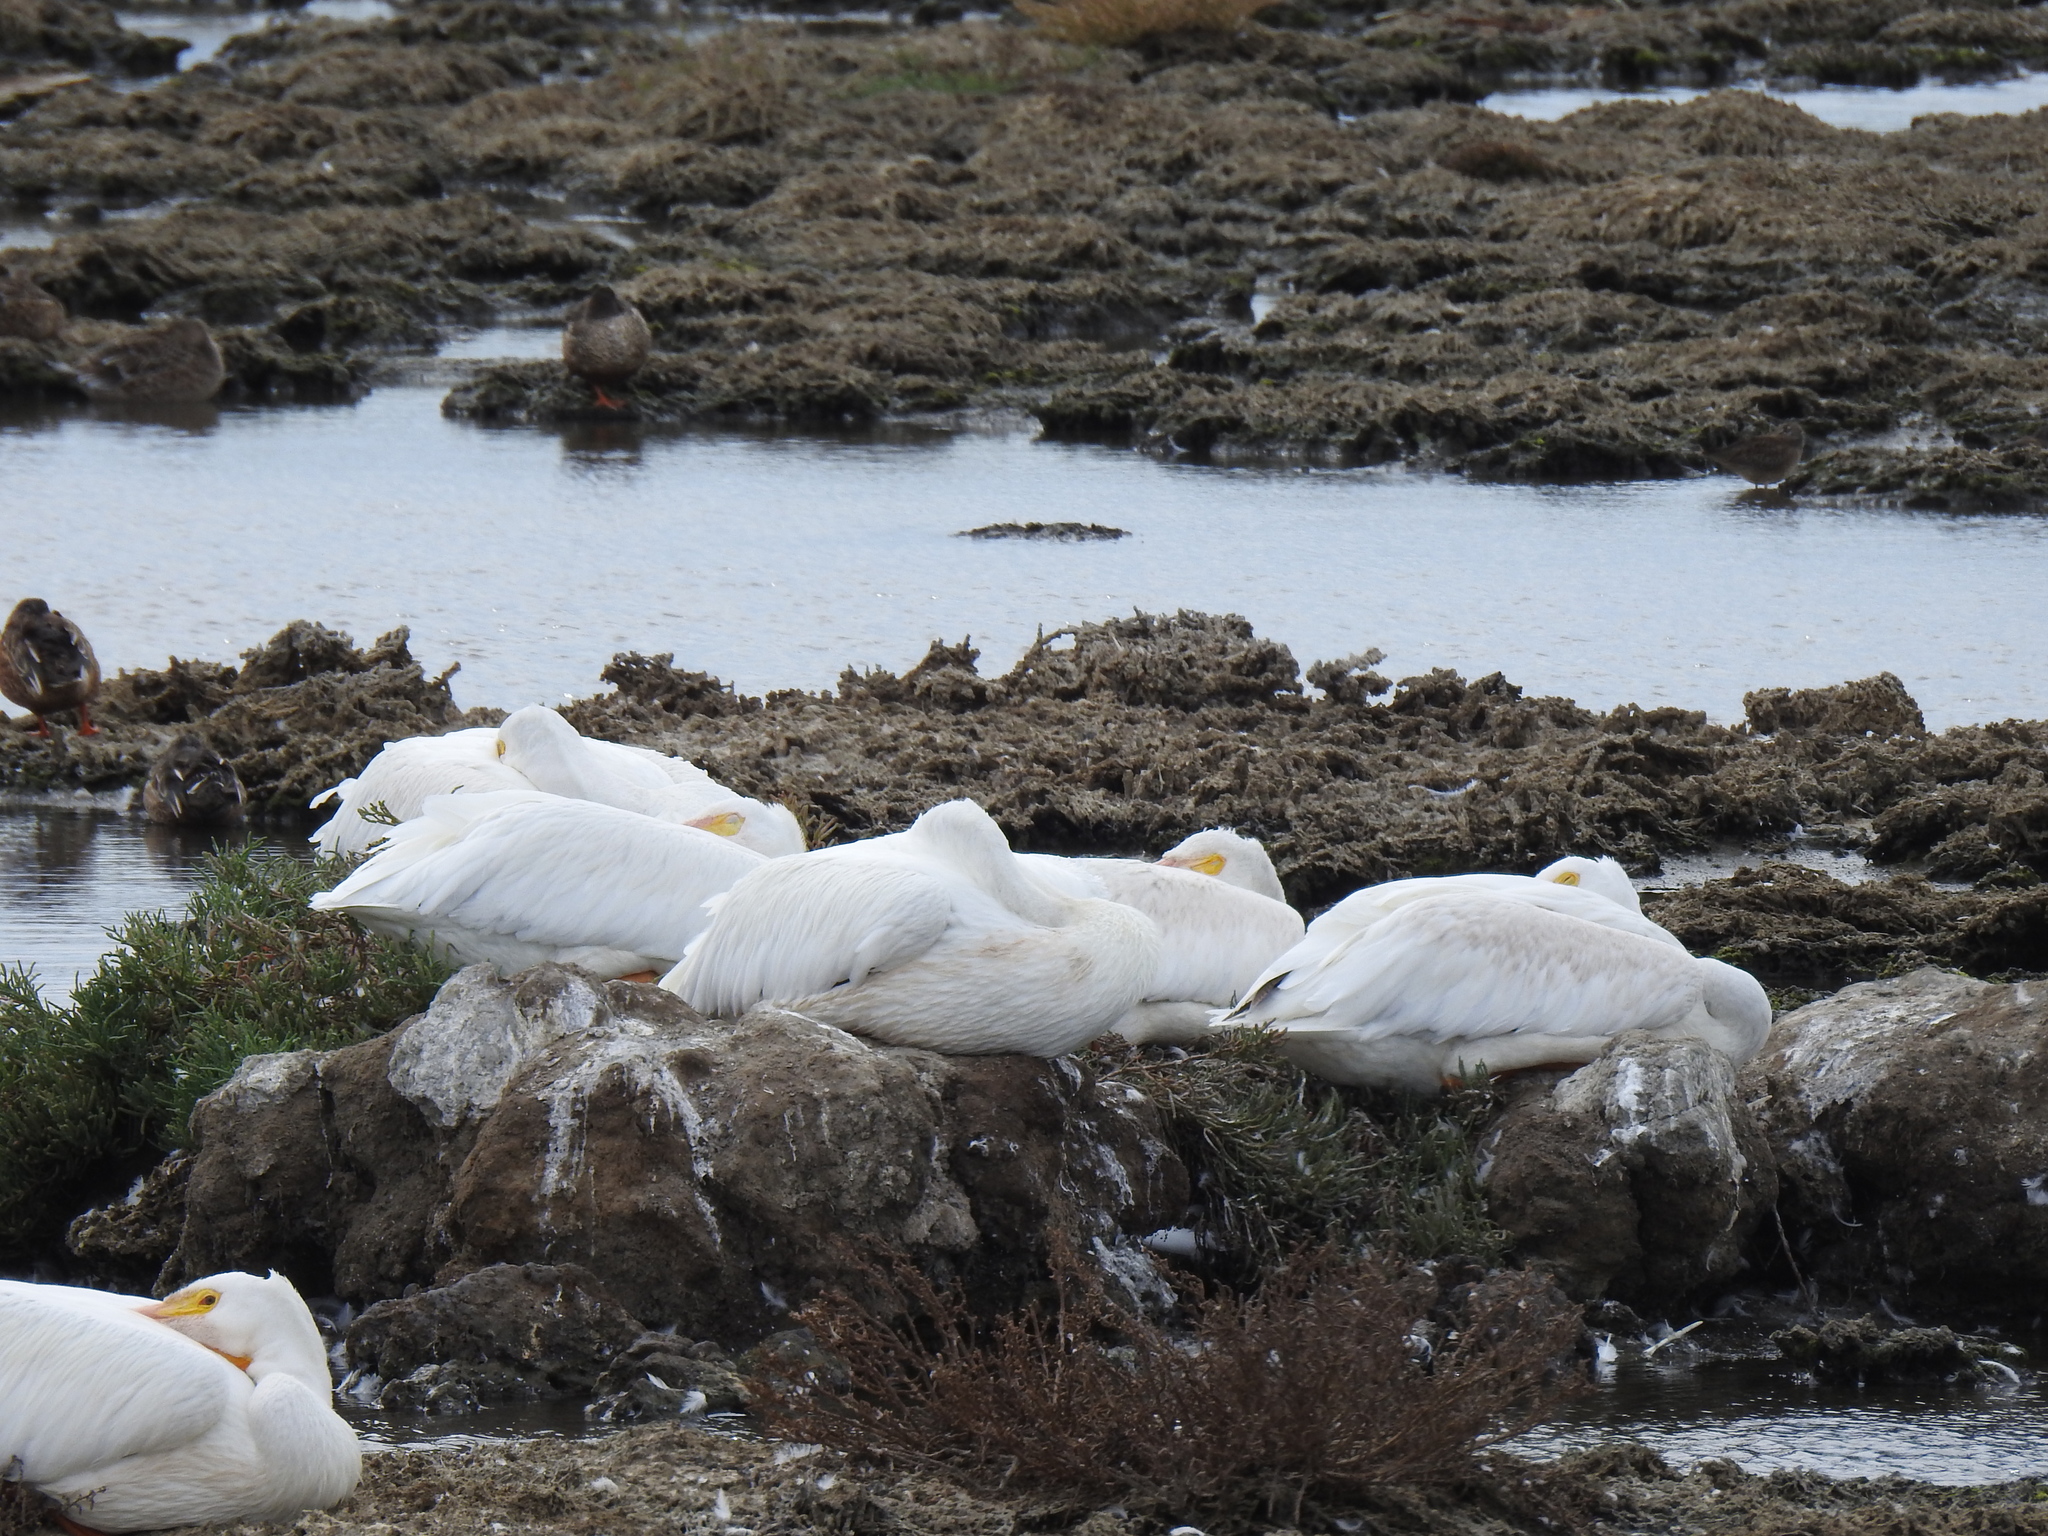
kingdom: Animalia
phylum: Chordata
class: Aves
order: Pelecaniformes
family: Pelecanidae
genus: Pelecanus
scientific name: Pelecanus erythrorhynchos
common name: American white pelican
